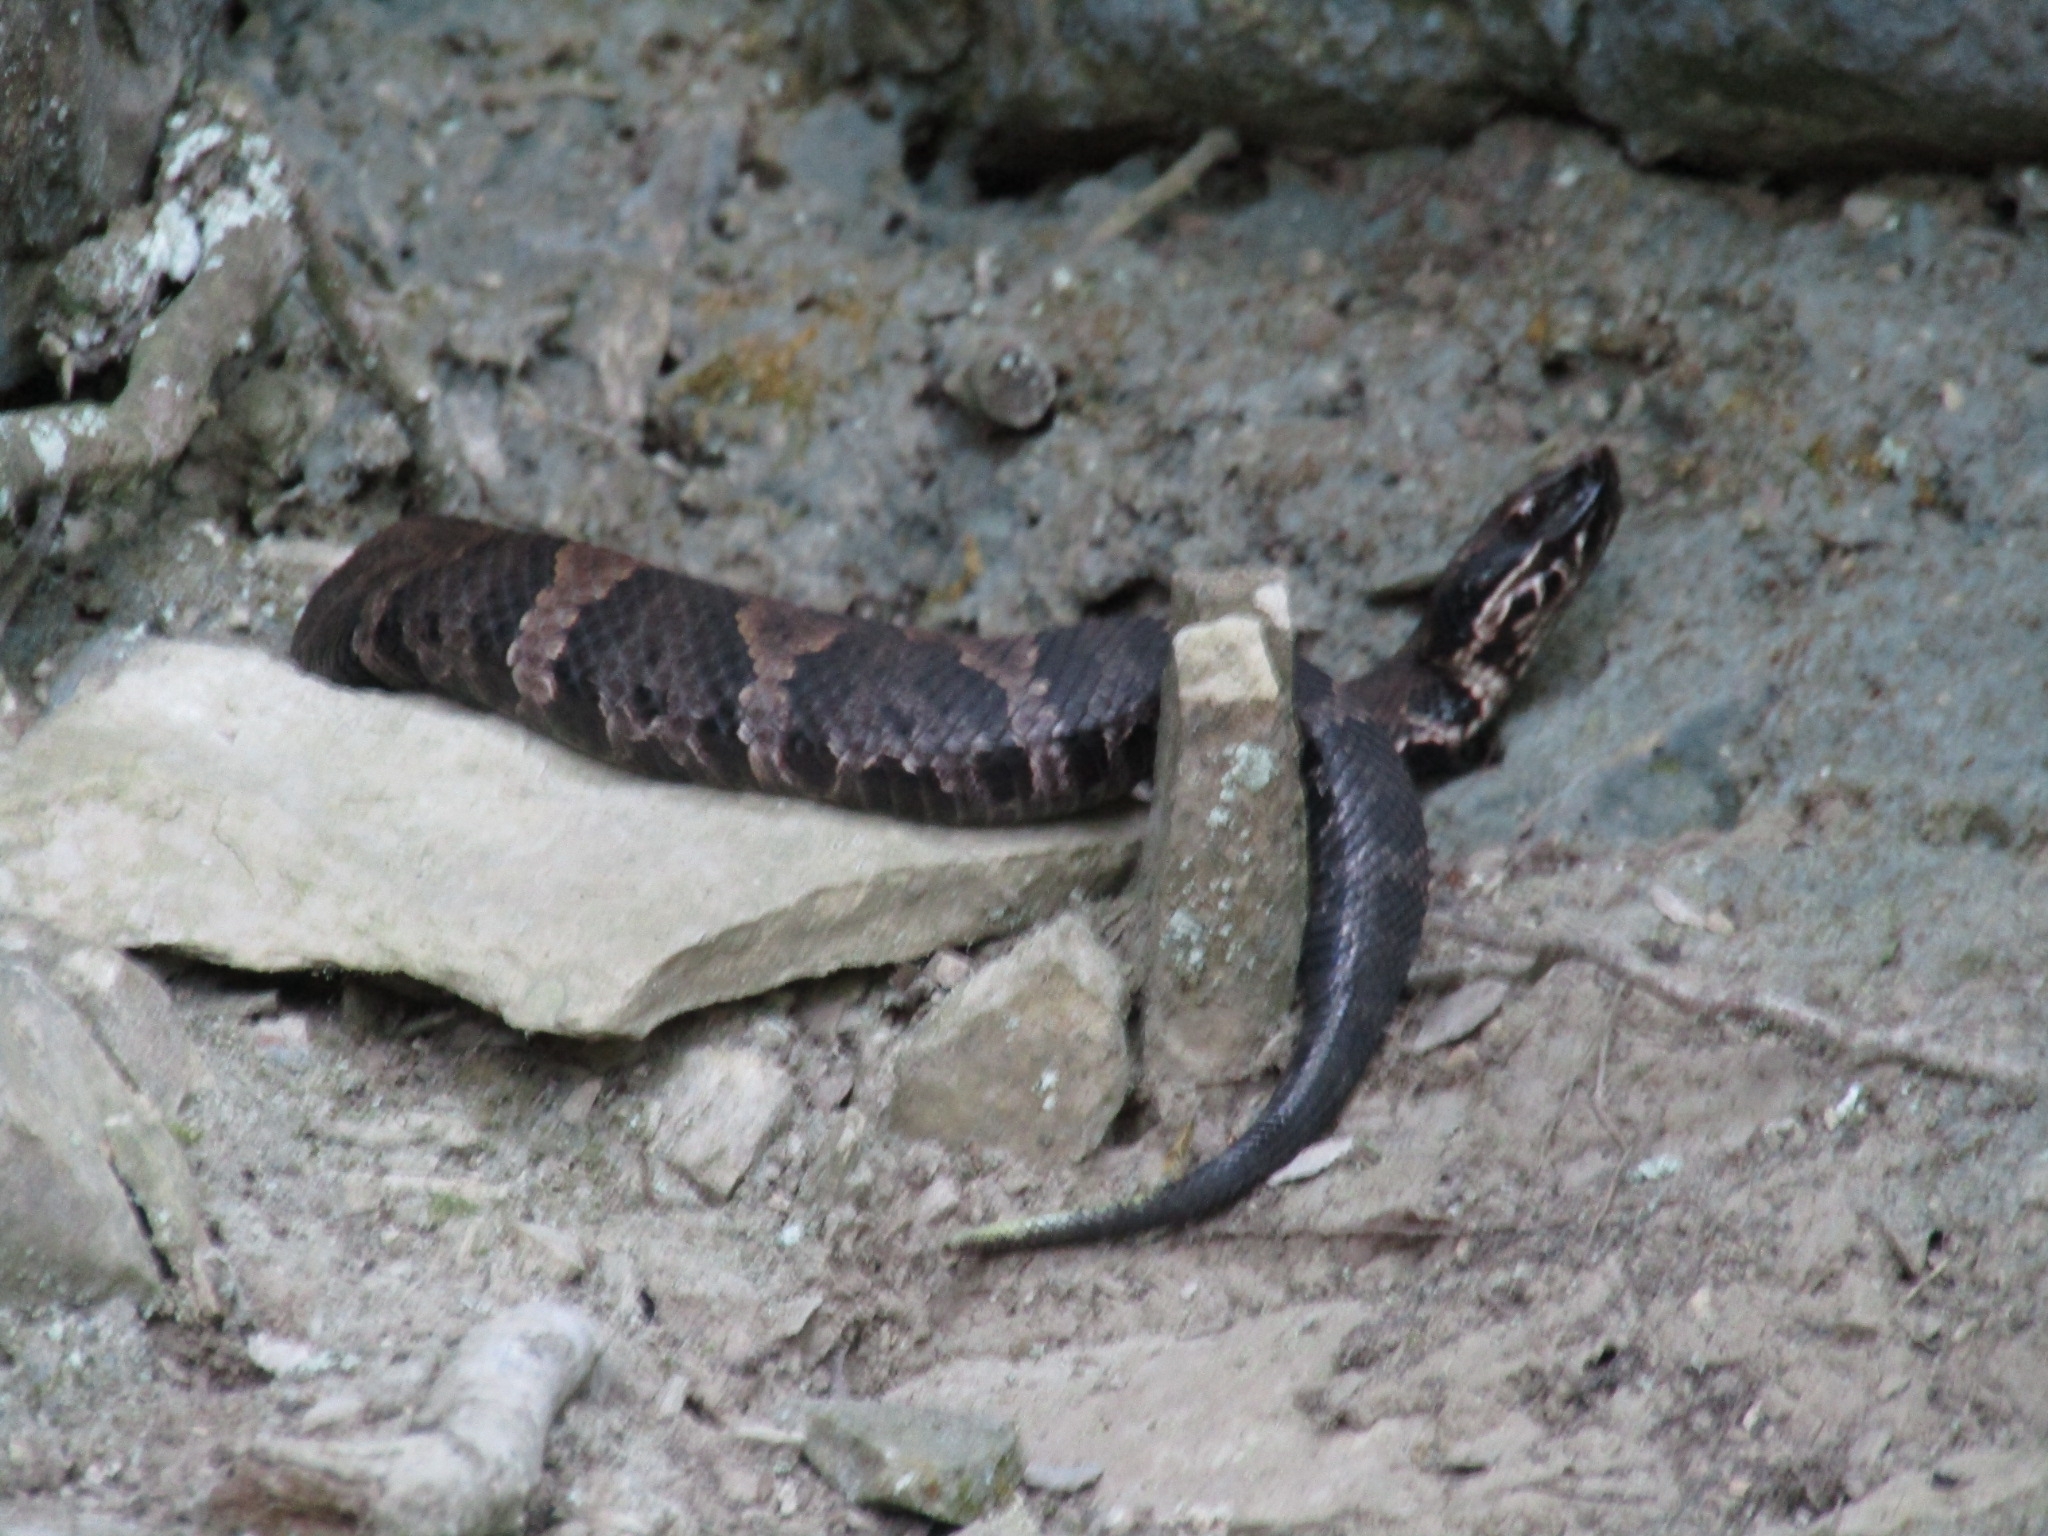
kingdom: Animalia
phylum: Chordata
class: Squamata
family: Viperidae
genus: Agkistrodon
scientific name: Agkistrodon piscivorus
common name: Cottonmouth
